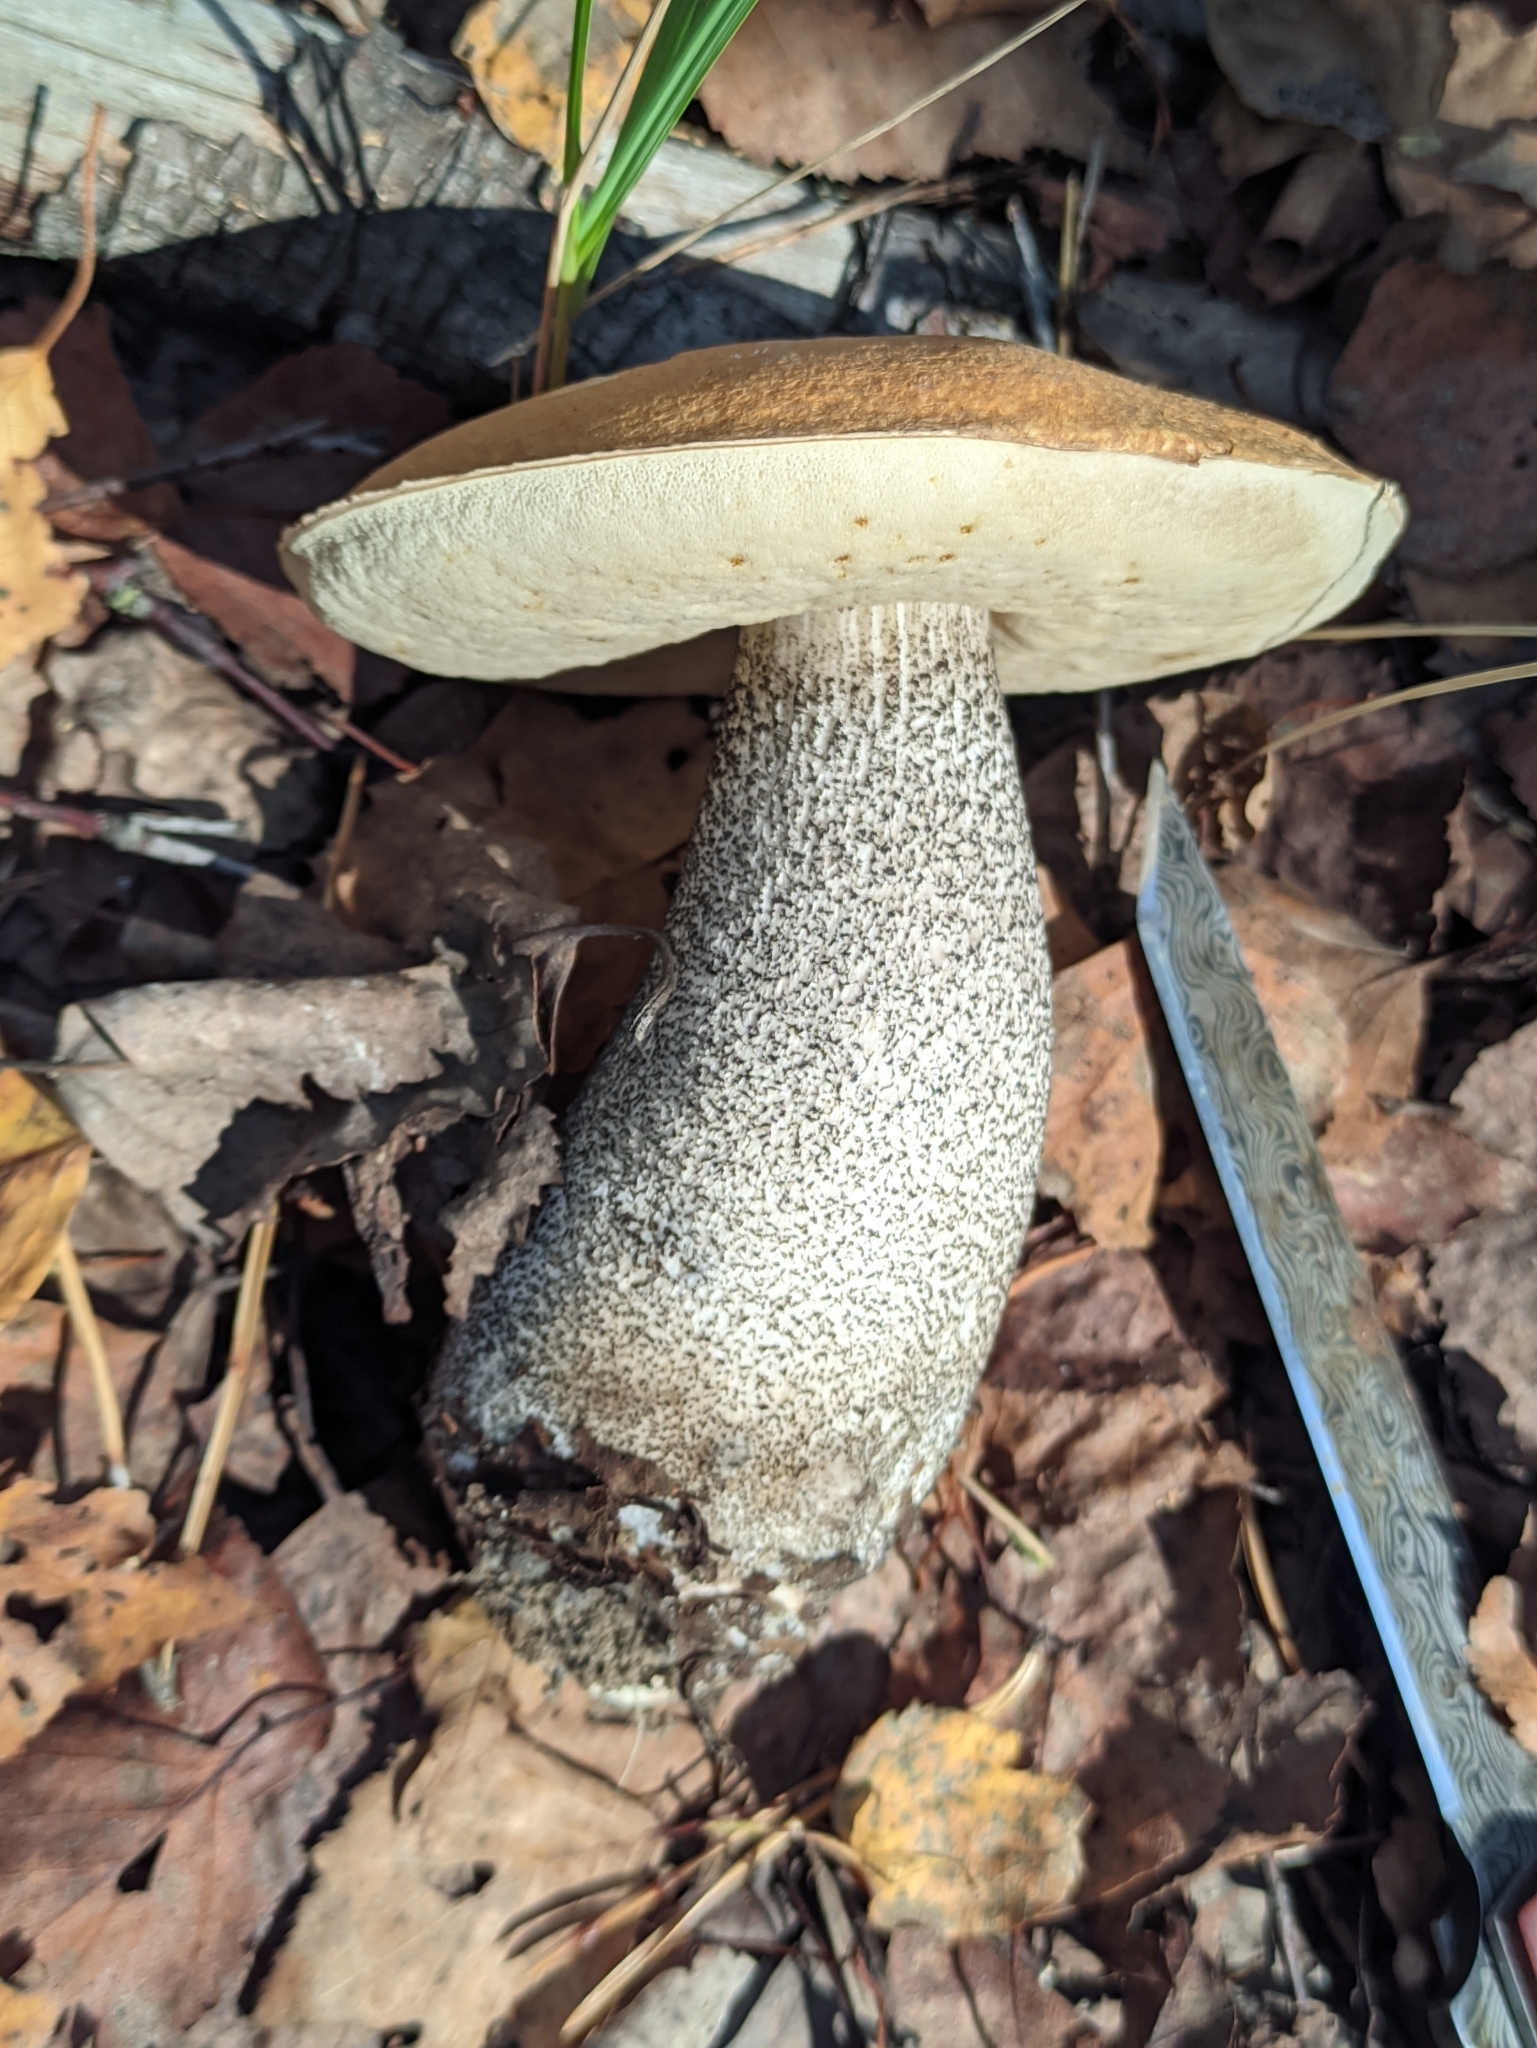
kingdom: Fungi
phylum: Basidiomycota
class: Agaricomycetes
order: Boletales
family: Boletaceae
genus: Leccinum
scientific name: Leccinum versipelle
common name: Orange birch bolete
